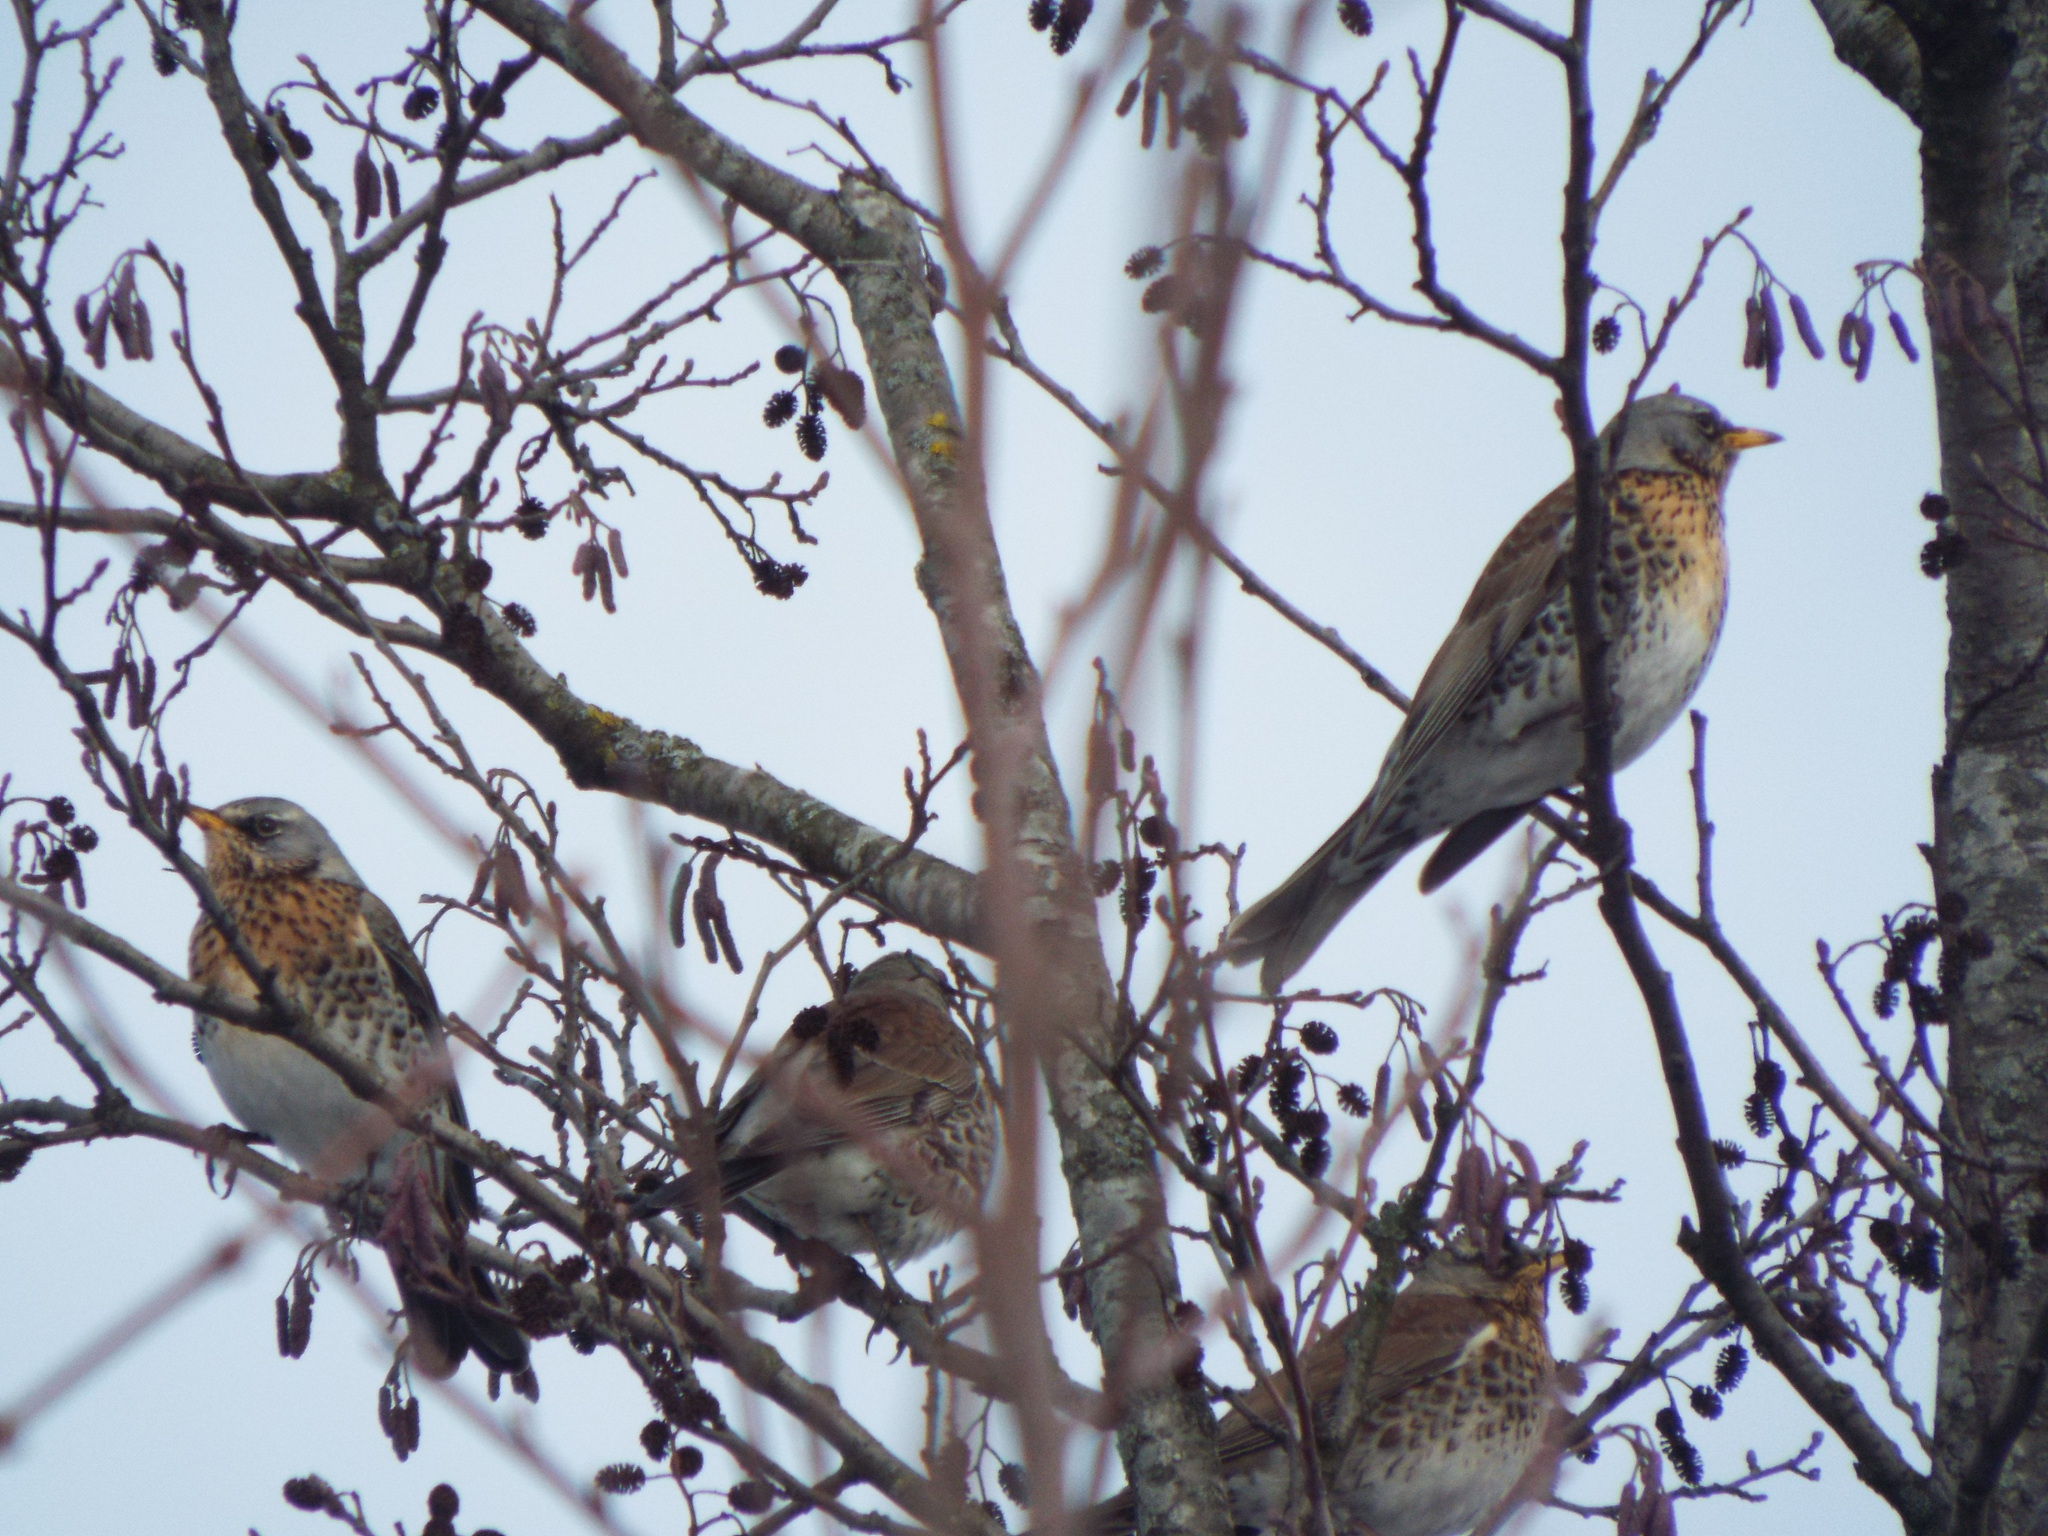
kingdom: Animalia
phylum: Chordata
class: Aves
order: Passeriformes
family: Turdidae
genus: Turdus
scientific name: Turdus pilaris
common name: Fieldfare
